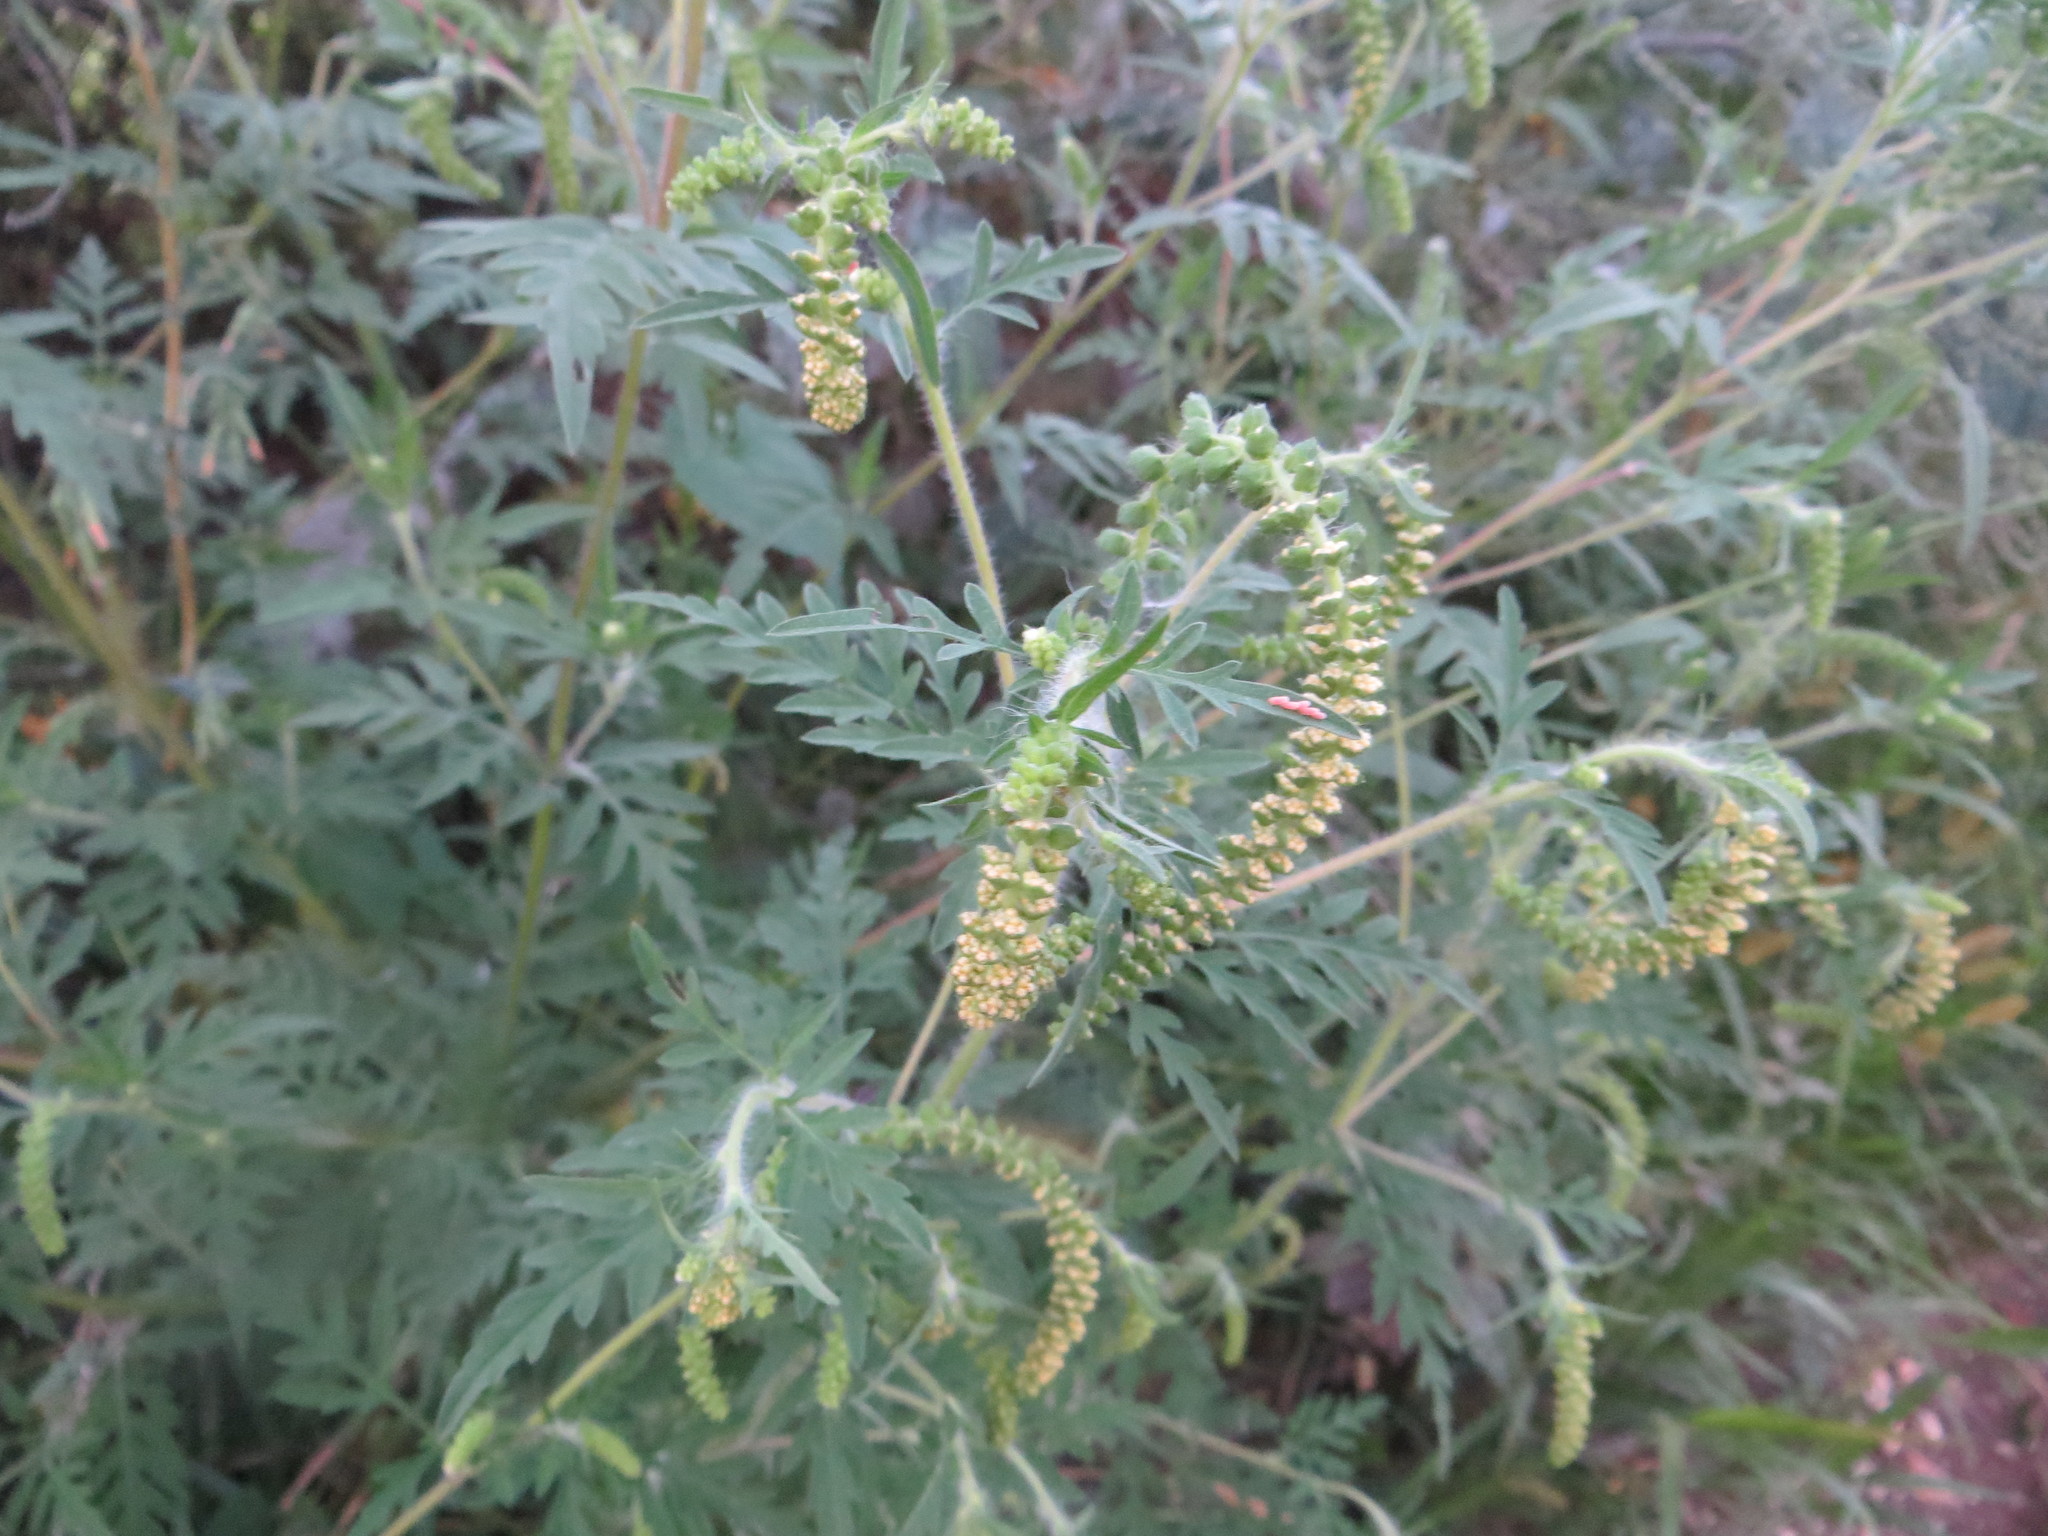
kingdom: Plantae
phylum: Tracheophyta
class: Magnoliopsida
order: Asterales
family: Asteraceae
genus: Ambrosia
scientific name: Ambrosia artemisiifolia
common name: Annual ragweed
